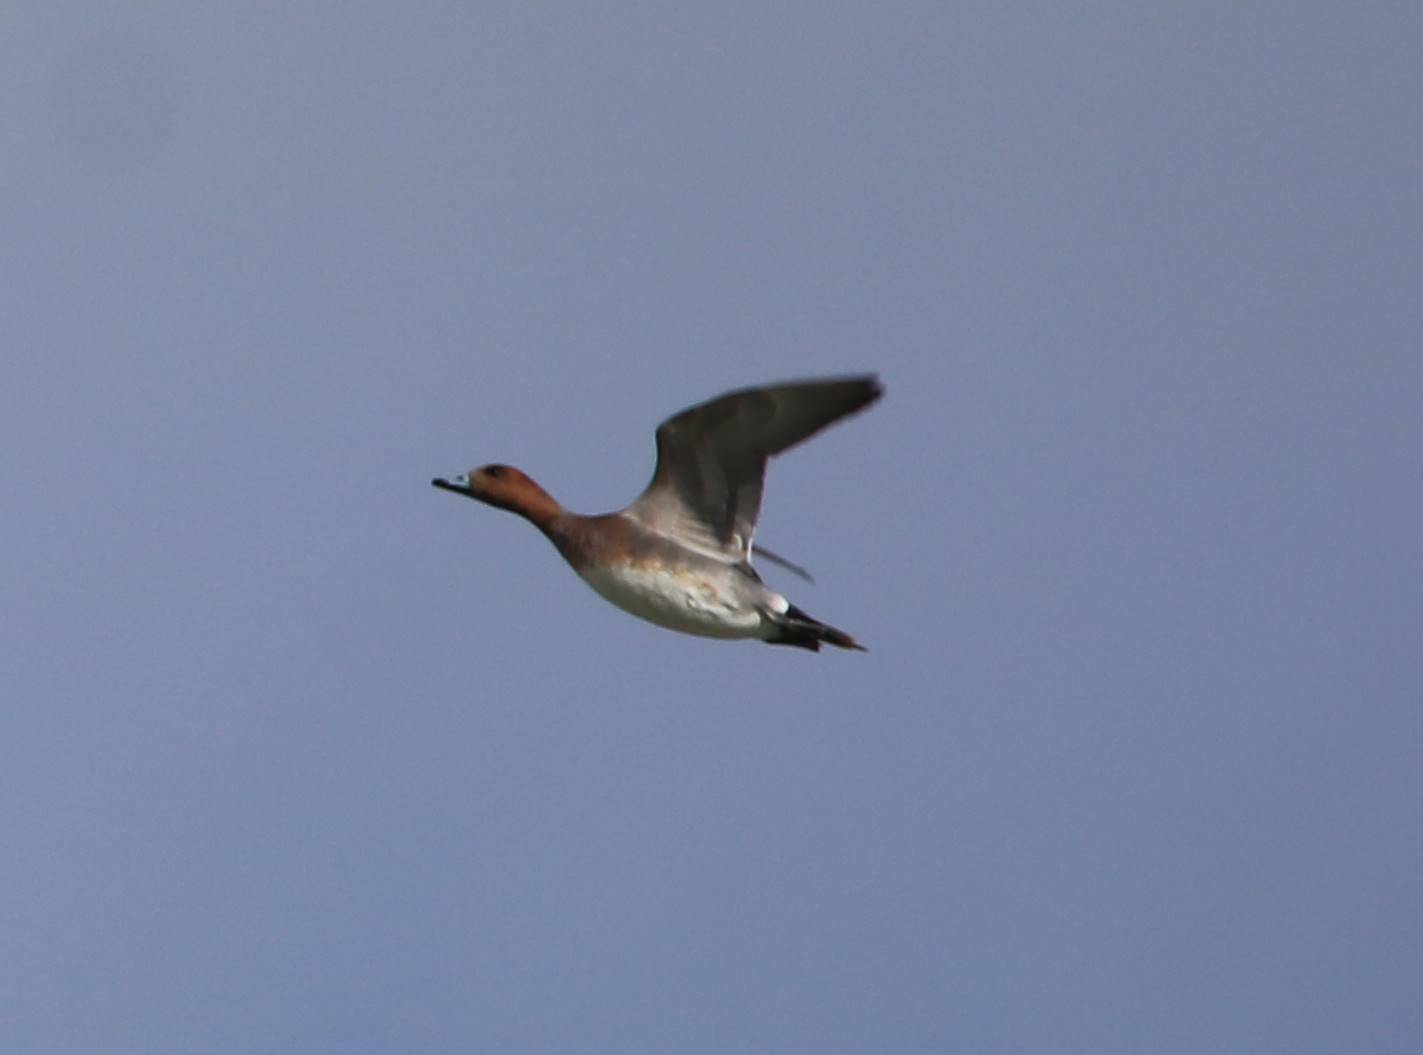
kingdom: Animalia
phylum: Chordata
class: Aves
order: Anseriformes
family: Anatidae
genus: Mareca
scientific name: Mareca penelope
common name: Eurasian wigeon
